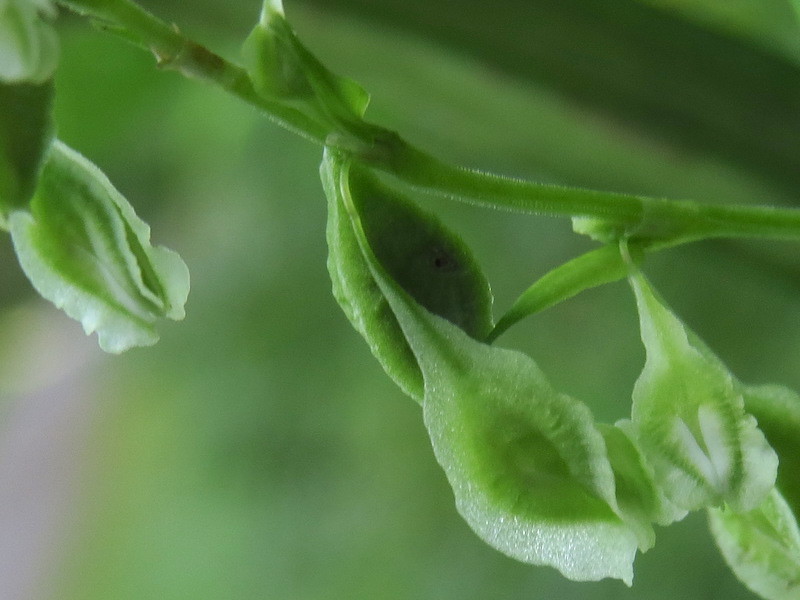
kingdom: Plantae
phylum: Tracheophyta
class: Magnoliopsida
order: Caryophyllales
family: Polygonaceae
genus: Fallopia
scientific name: Fallopia scandens
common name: Climbing false buckwheat
